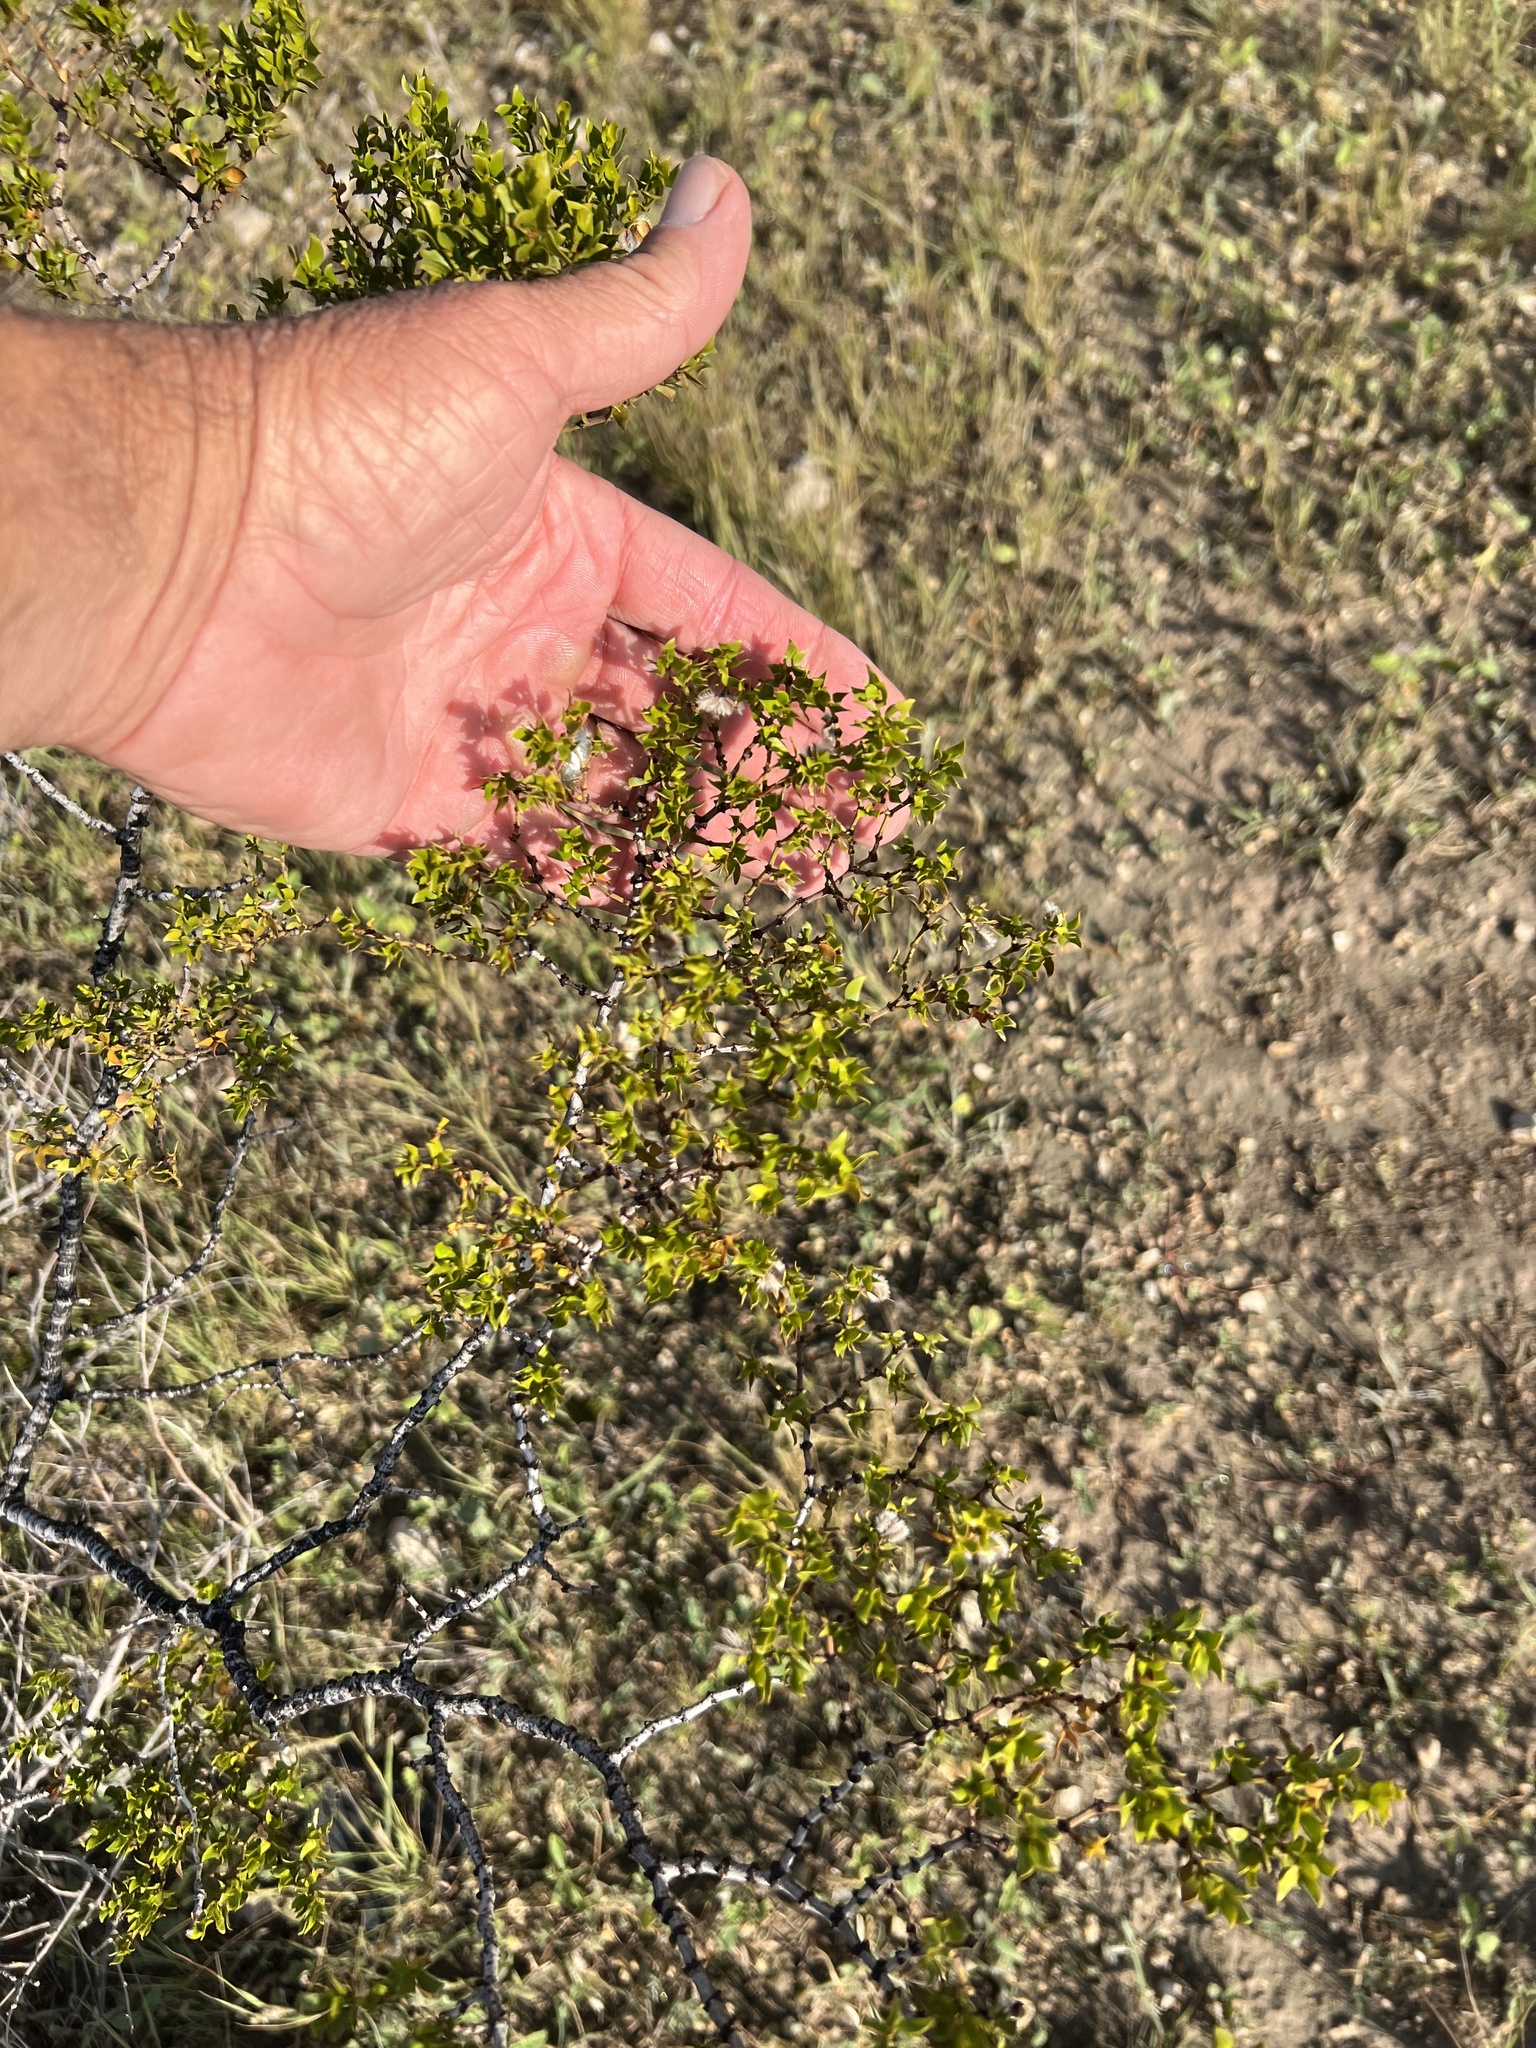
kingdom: Plantae
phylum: Tracheophyta
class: Magnoliopsida
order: Zygophyllales
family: Zygophyllaceae
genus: Larrea
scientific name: Larrea tridentata
